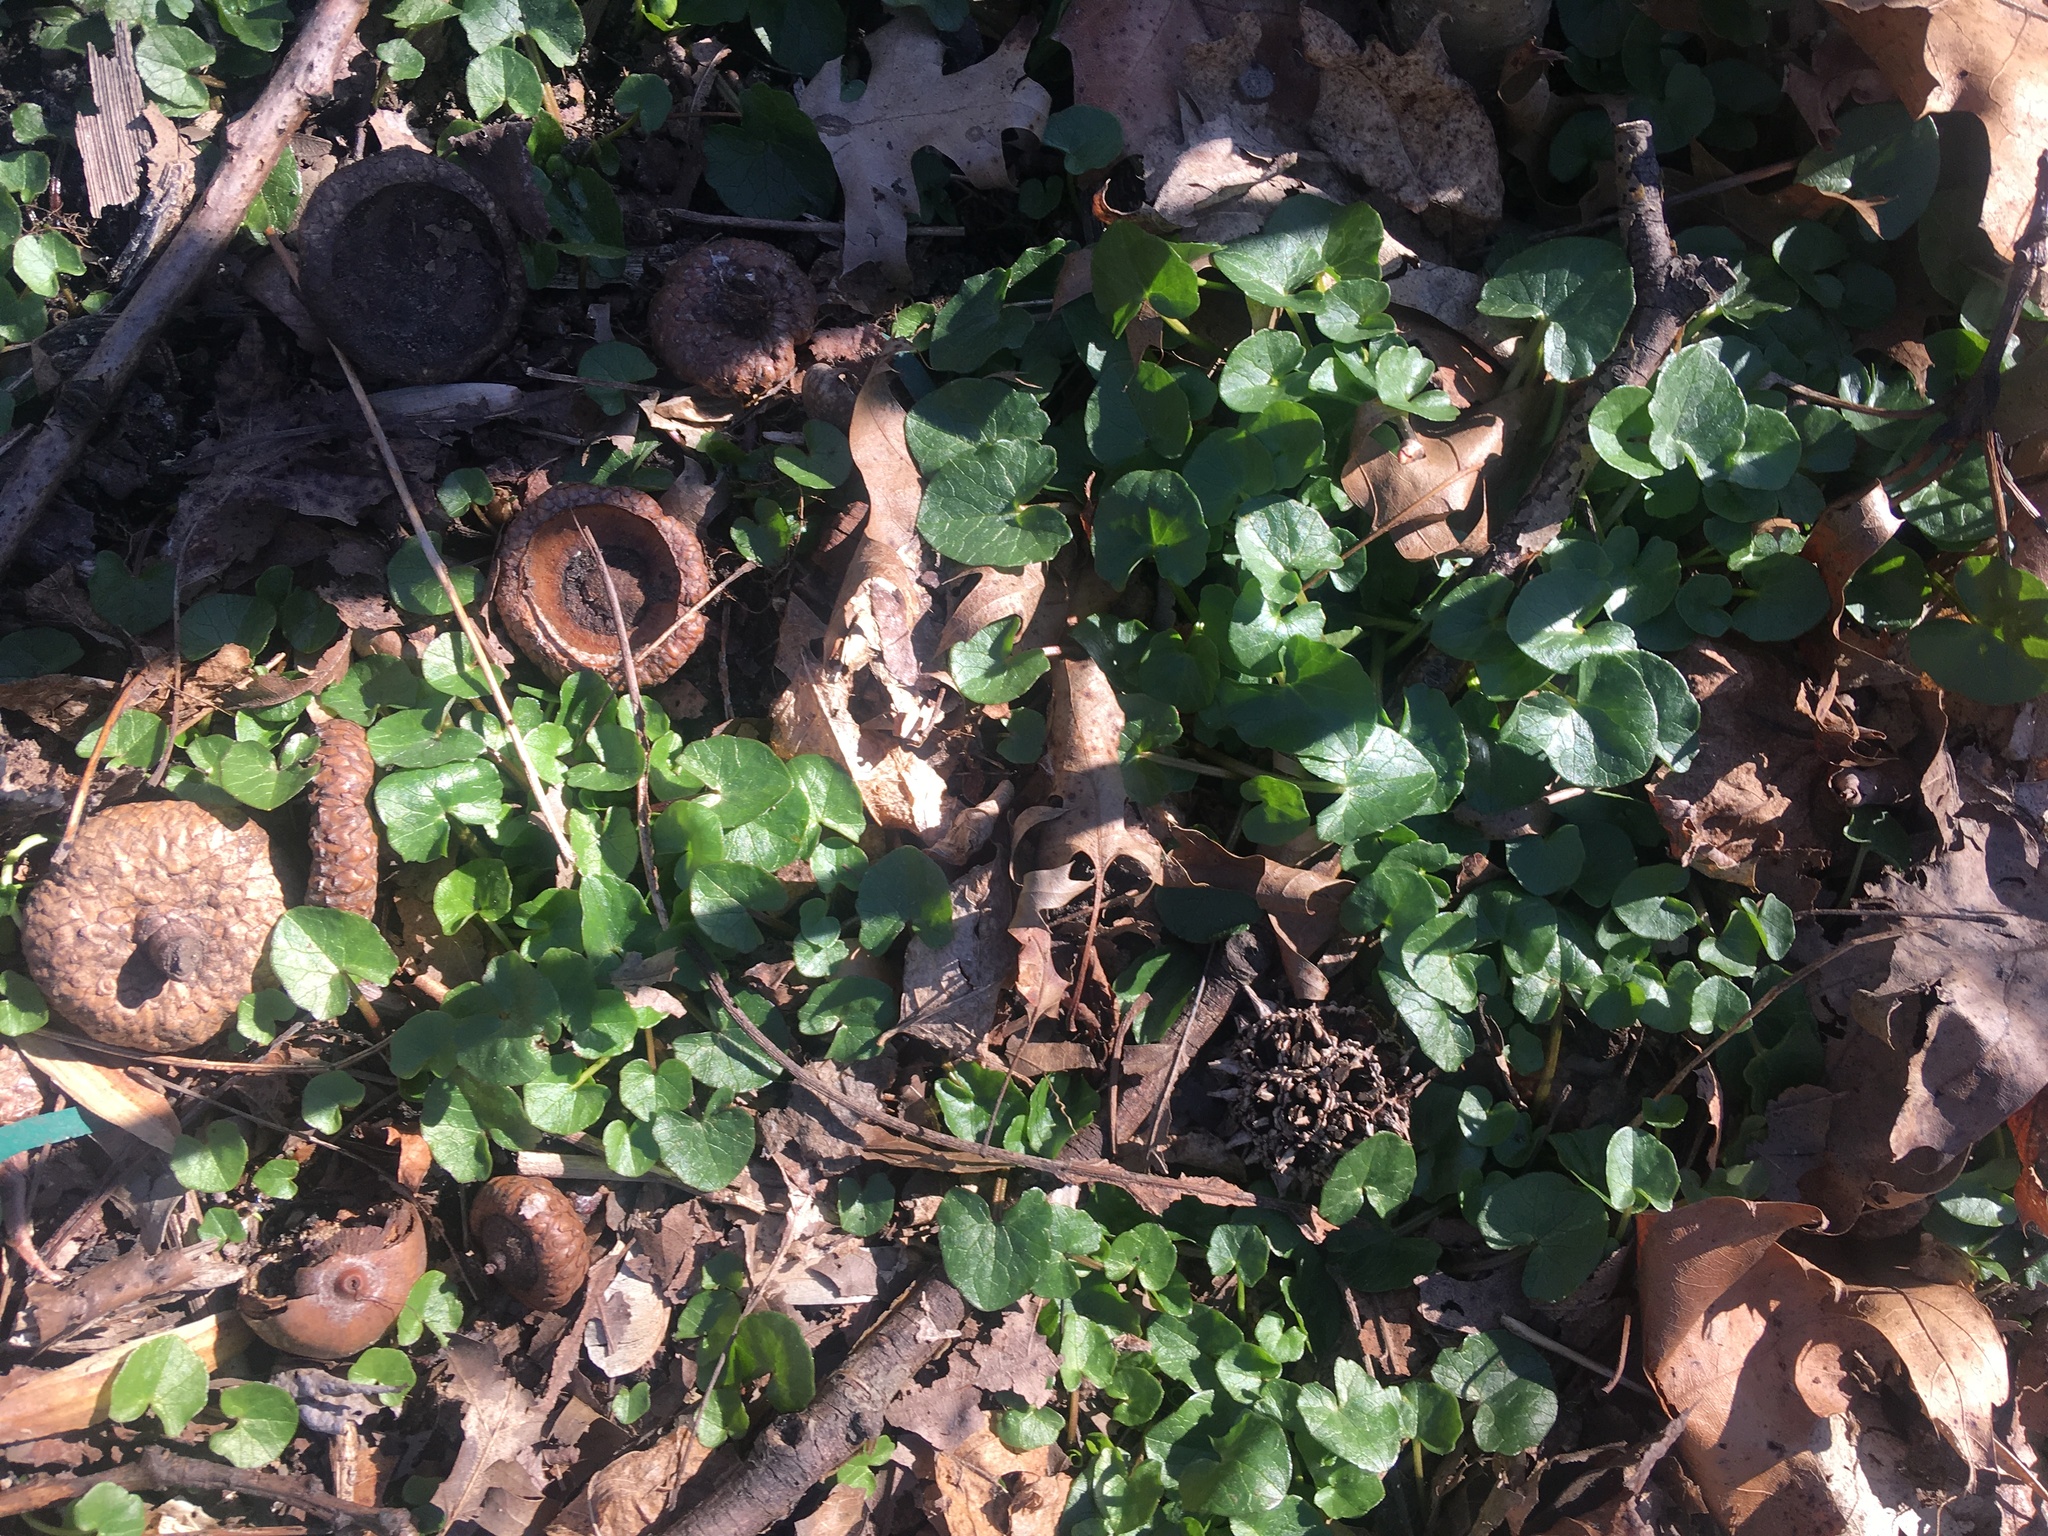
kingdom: Plantae
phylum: Tracheophyta
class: Magnoliopsida
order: Ranunculales
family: Ranunculaceae
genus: Ficaria
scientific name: Ficaria verna
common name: Lesser celandine
